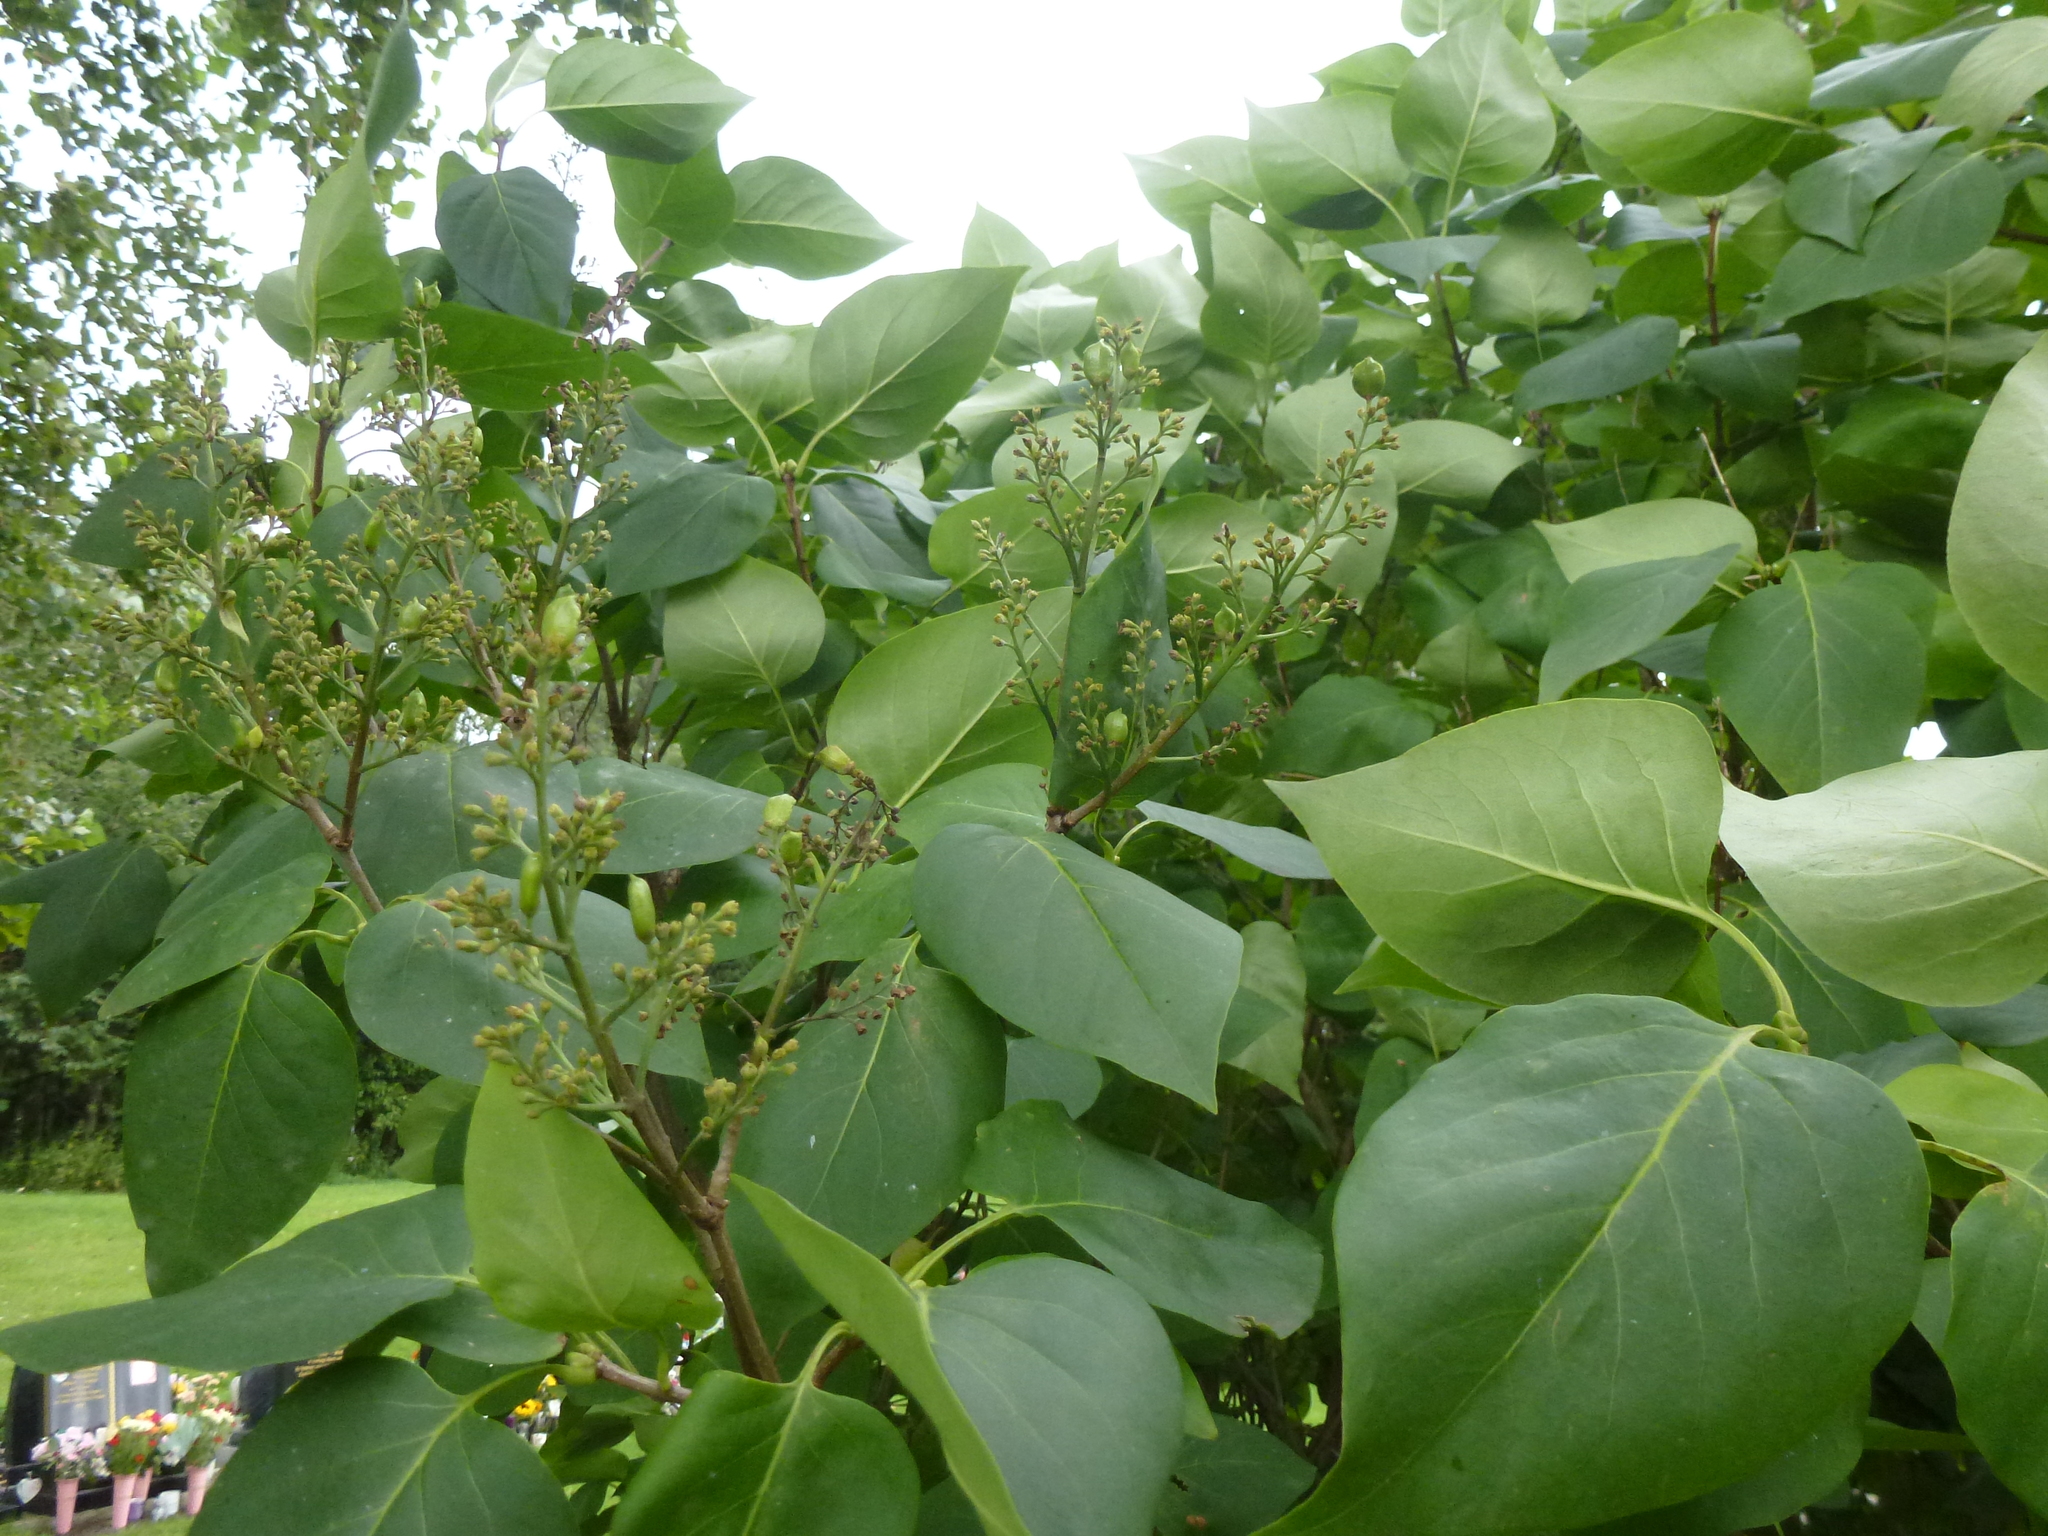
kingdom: Plantae
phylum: Tracheophyta
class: Magnoliopsida
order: Lamiales
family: Oleaceae
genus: Syringa
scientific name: Syringa vulgaris
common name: Common lilac
